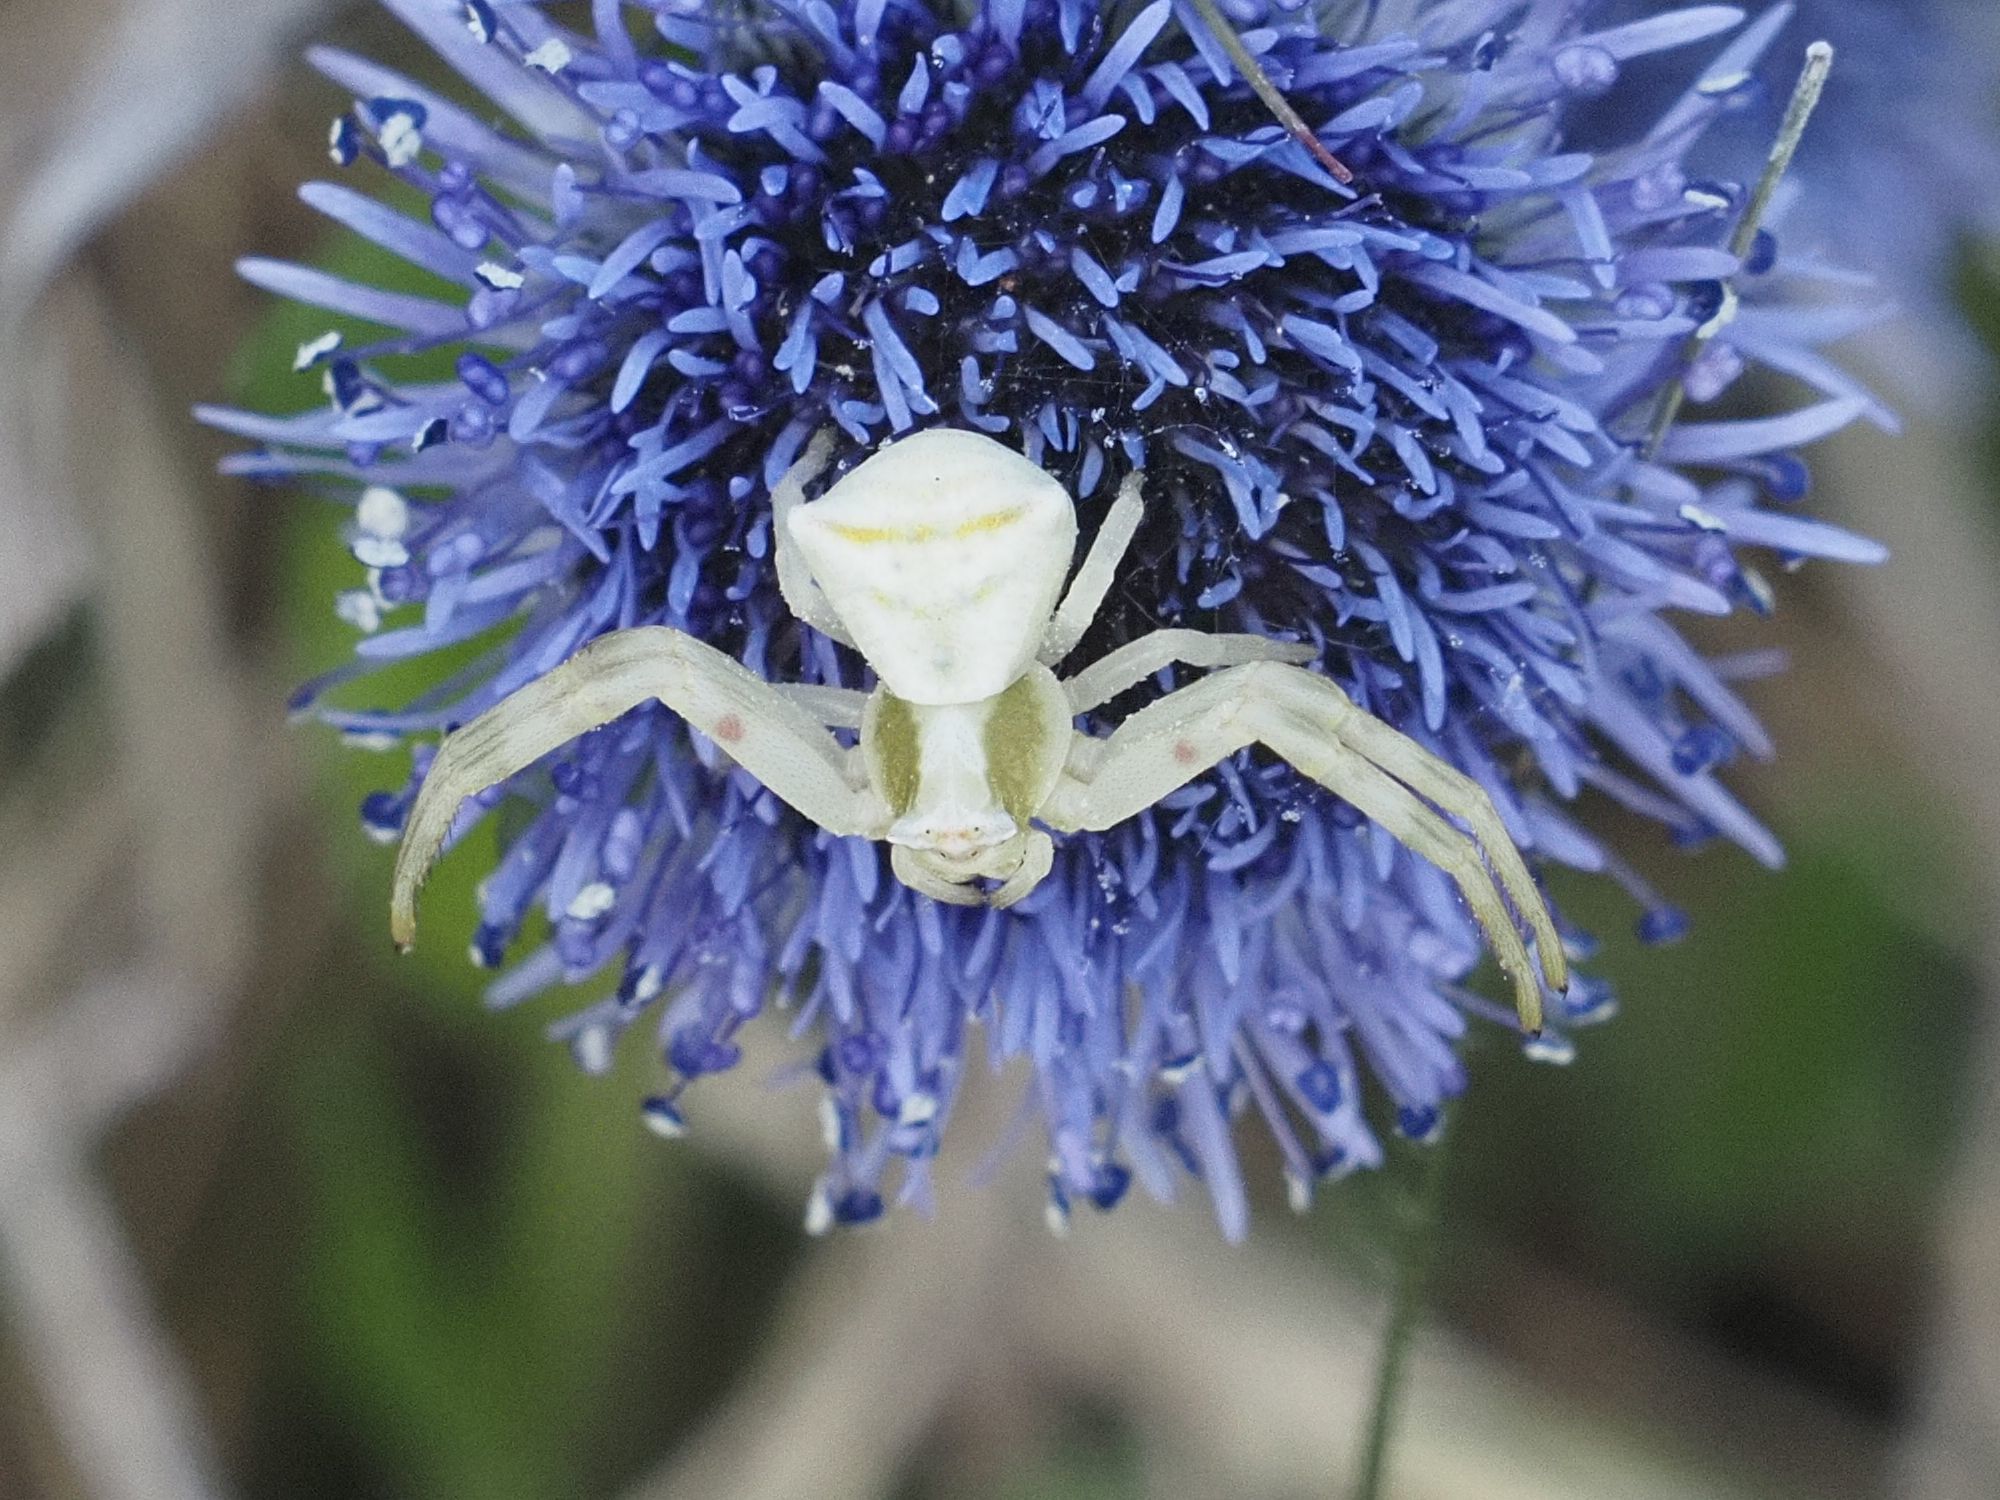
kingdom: Animalia
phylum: Arthropoda
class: Arachnida
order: Araneae
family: Thomisidae
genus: Thomisus
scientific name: Thomisus onustus
